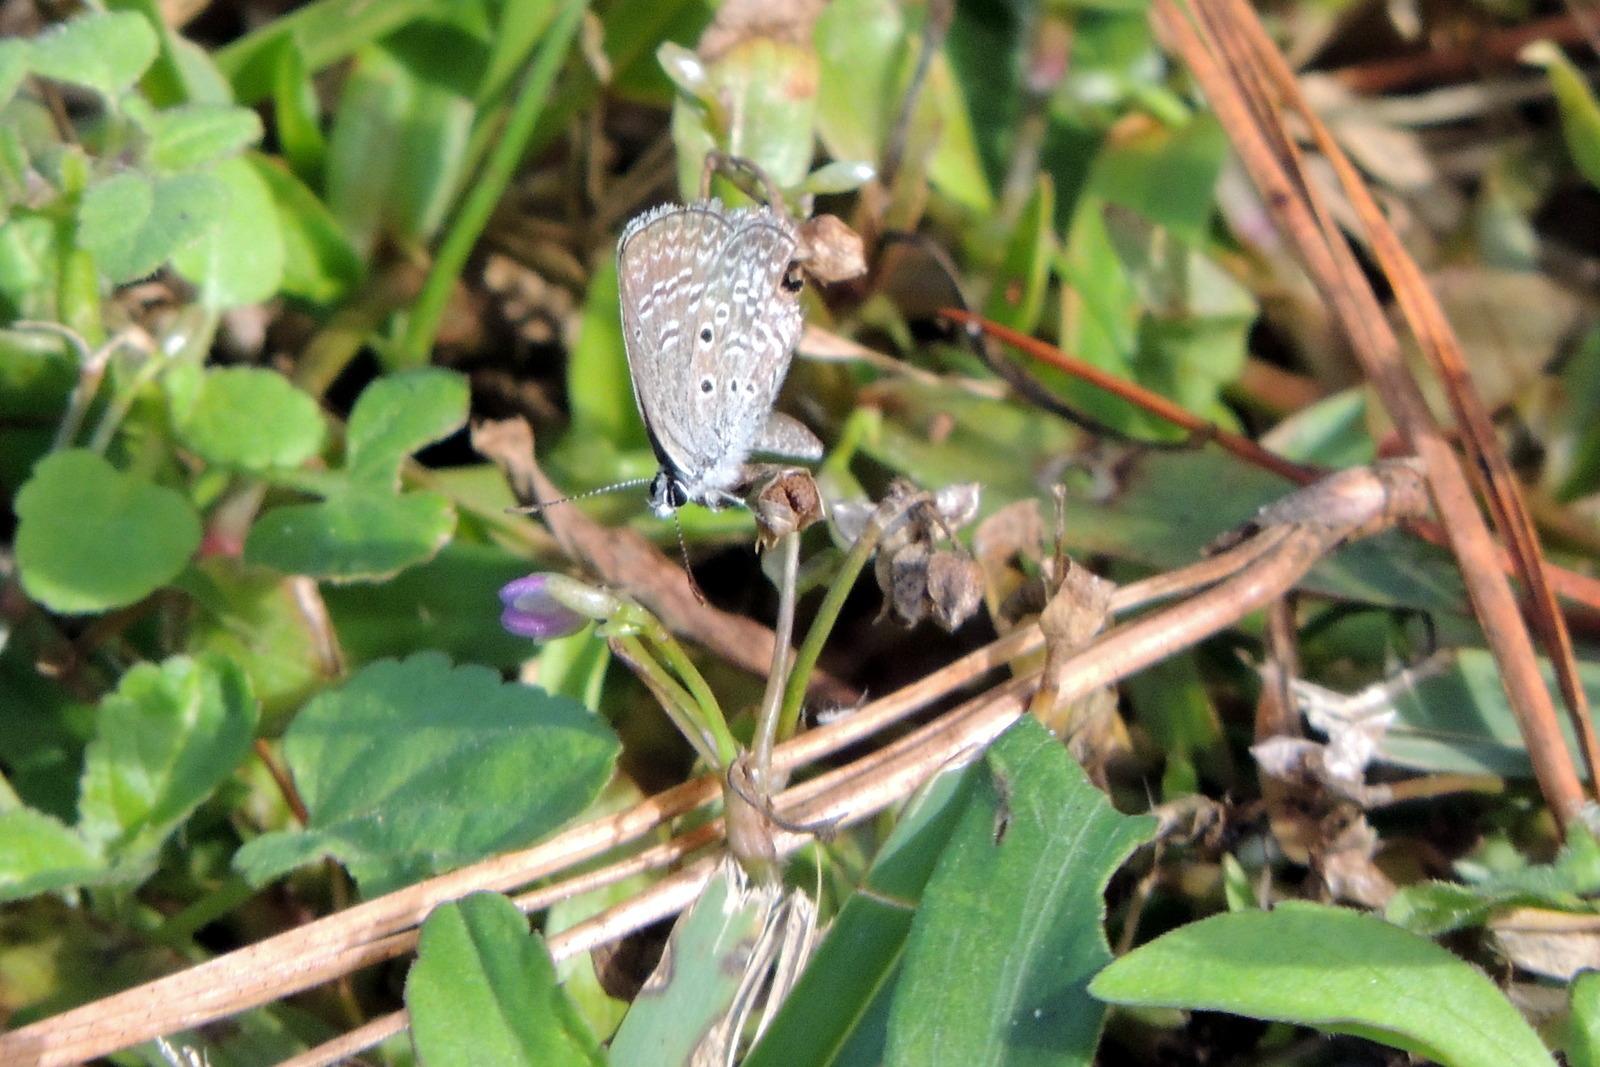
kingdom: Plantae
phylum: Tracheophyta
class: Liliopsida
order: Commelinales
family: Commelinaceae
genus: Murdannia
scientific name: Murdannia nudiflora
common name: Nakedstem dewflower
